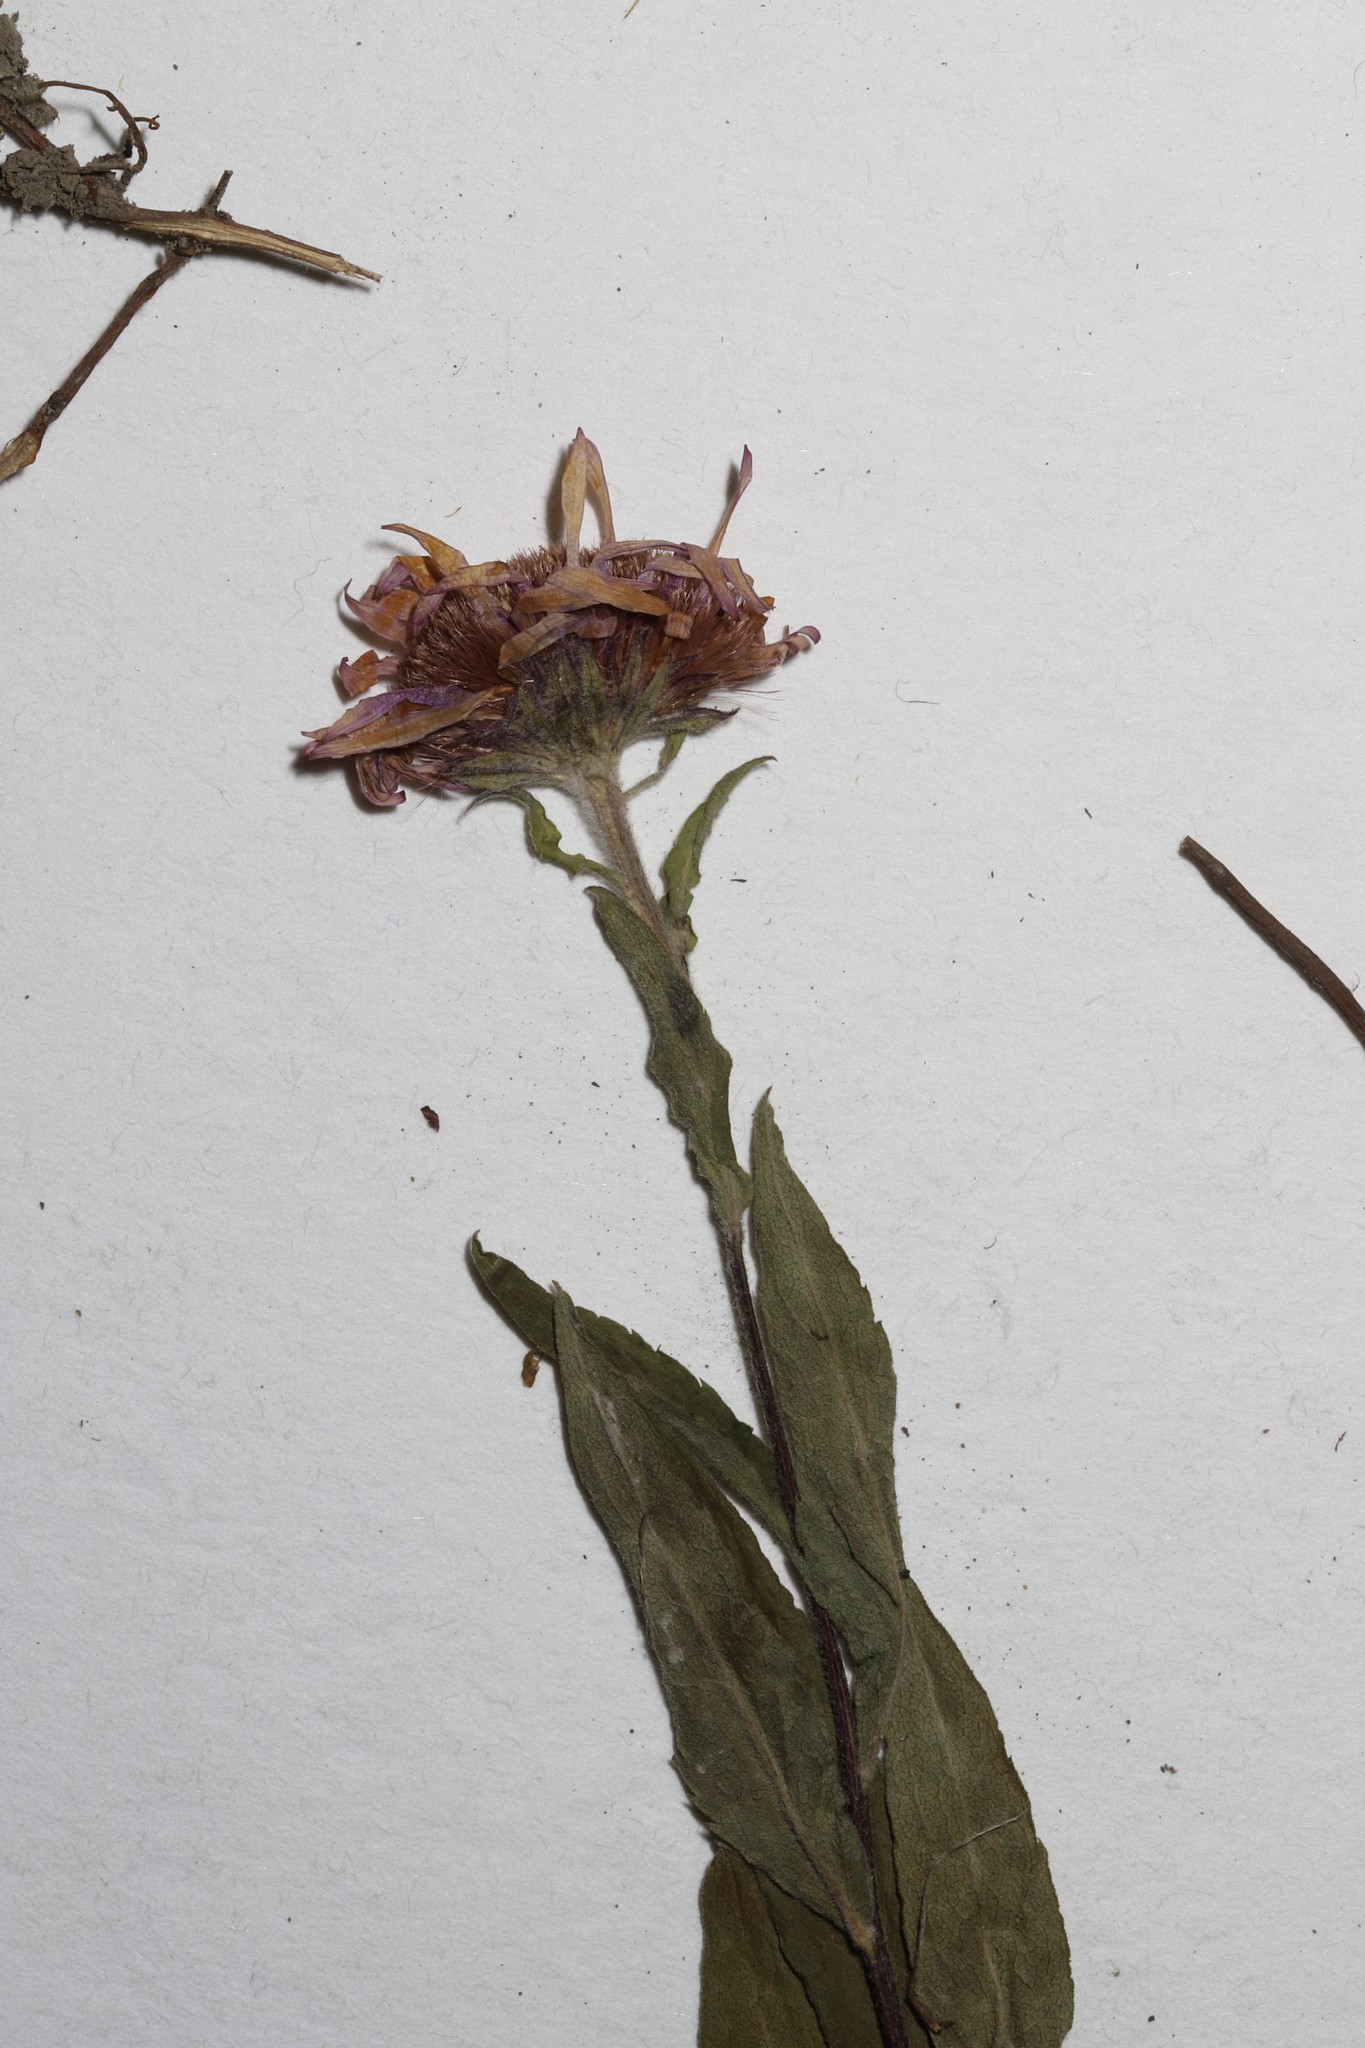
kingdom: Plantae
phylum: Tracheophyta
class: Magnoliopsida
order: Asterales
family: Asteraceae
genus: Eurybia
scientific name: Eurybia sibirica
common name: Arctic aster
